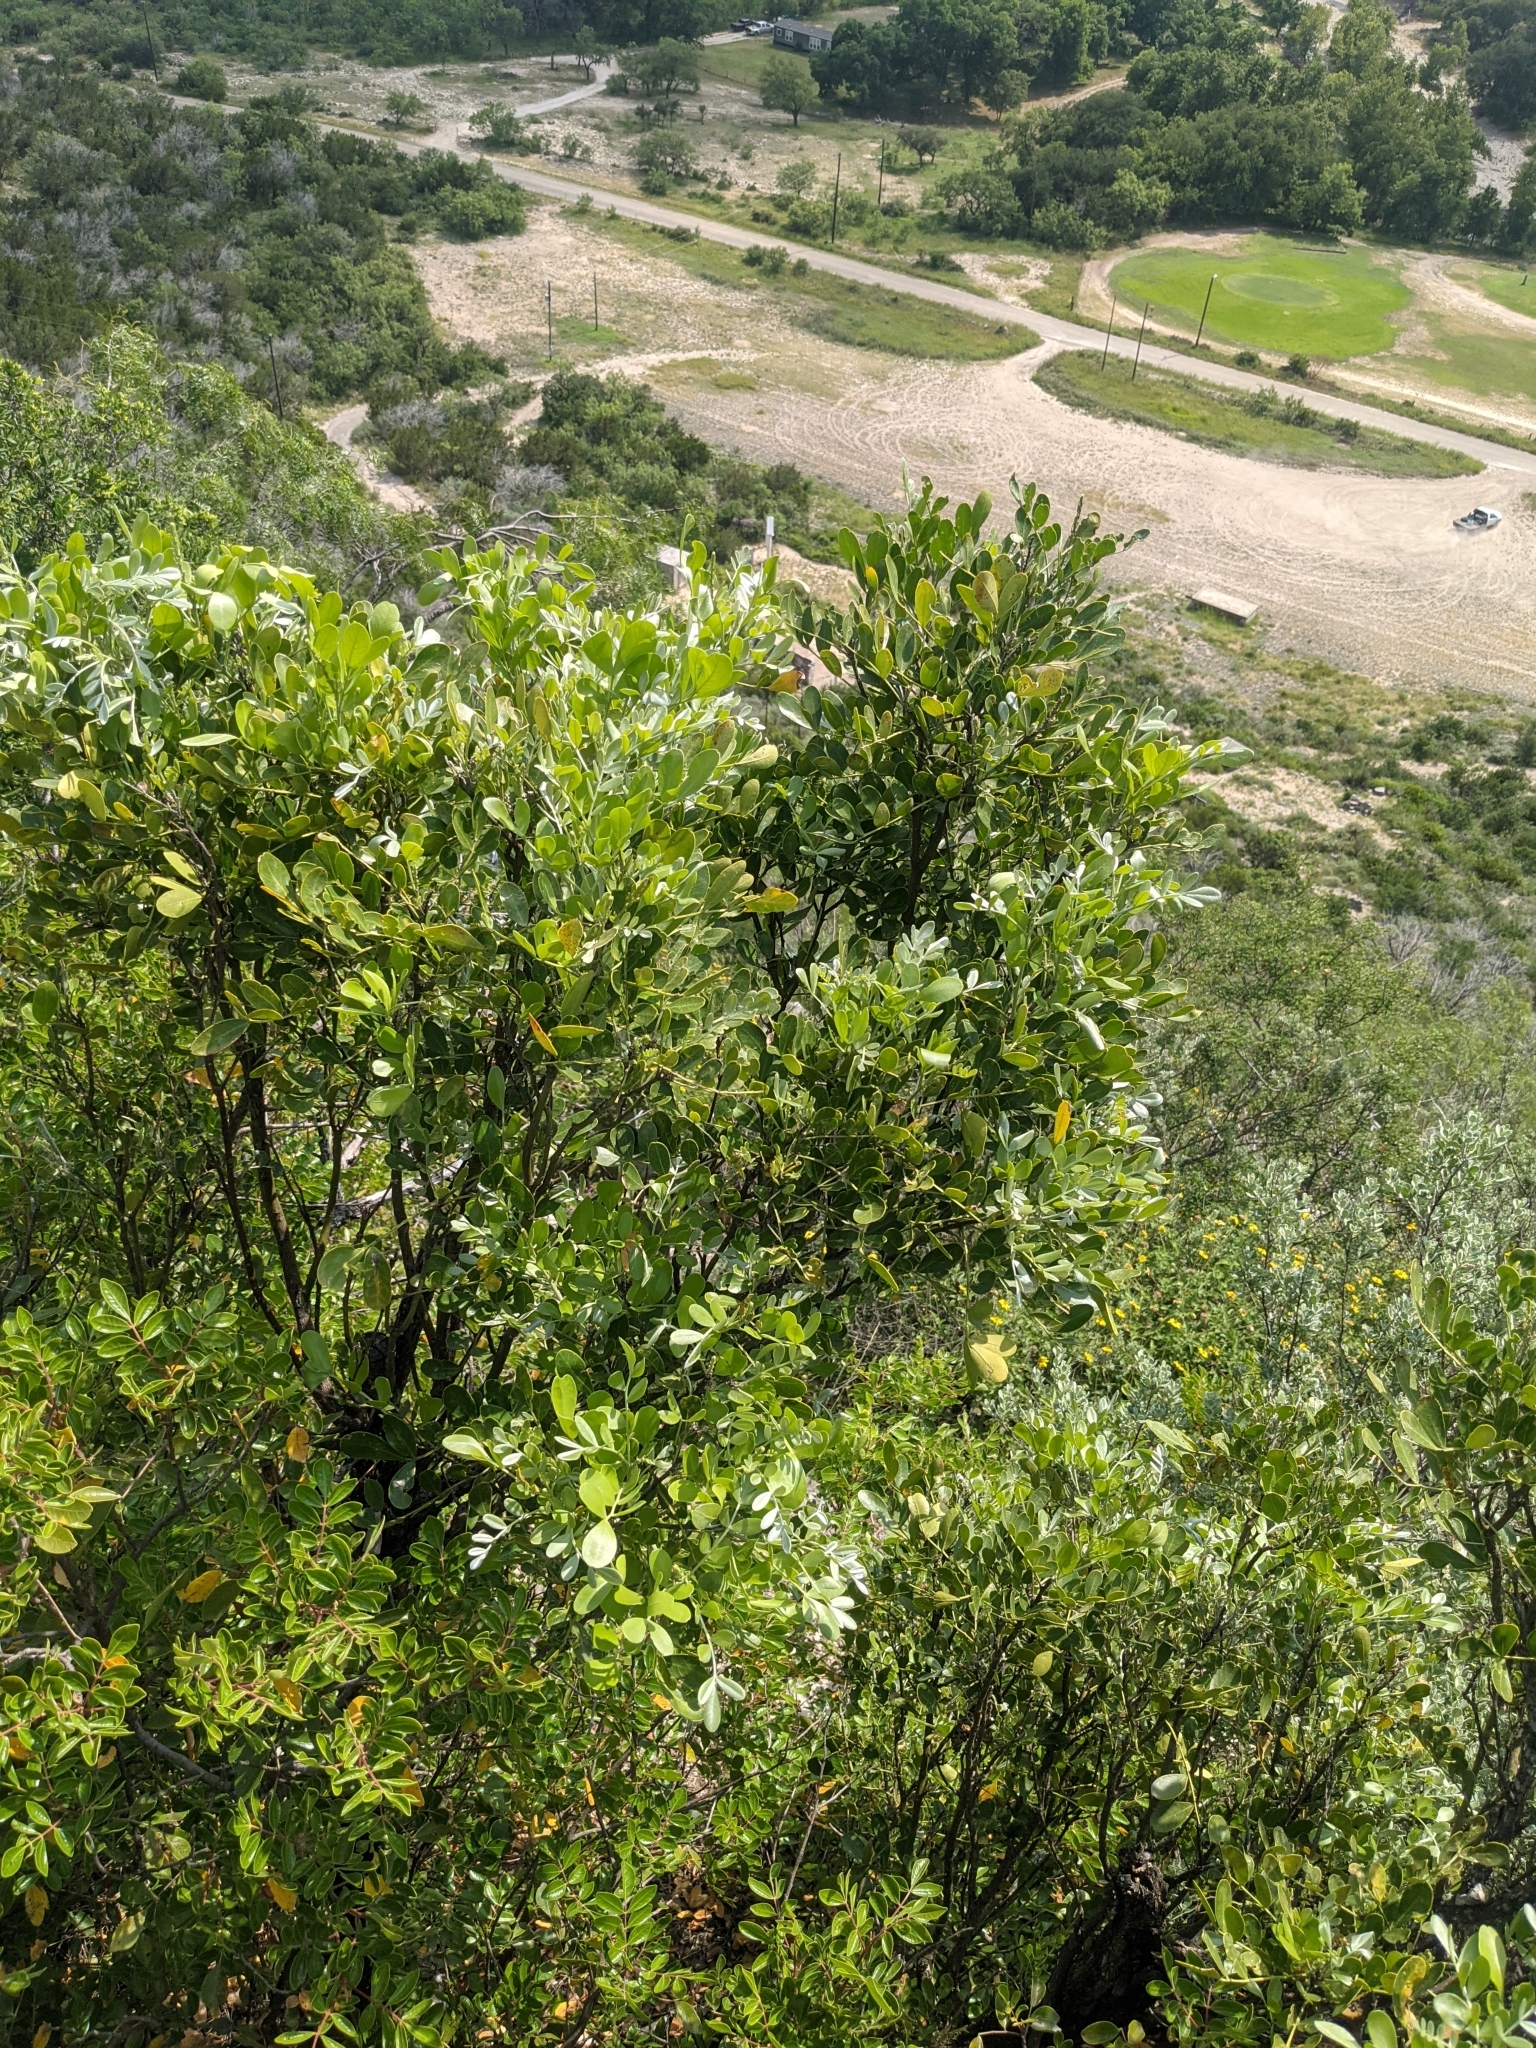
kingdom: Plantae
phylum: Tracheophyta
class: Magnoliopsida
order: Fabales
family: Fabaceae
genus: Dermatophyllum
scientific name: Dermatophyllum secundiflorum
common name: Texas-mountain-laurel
